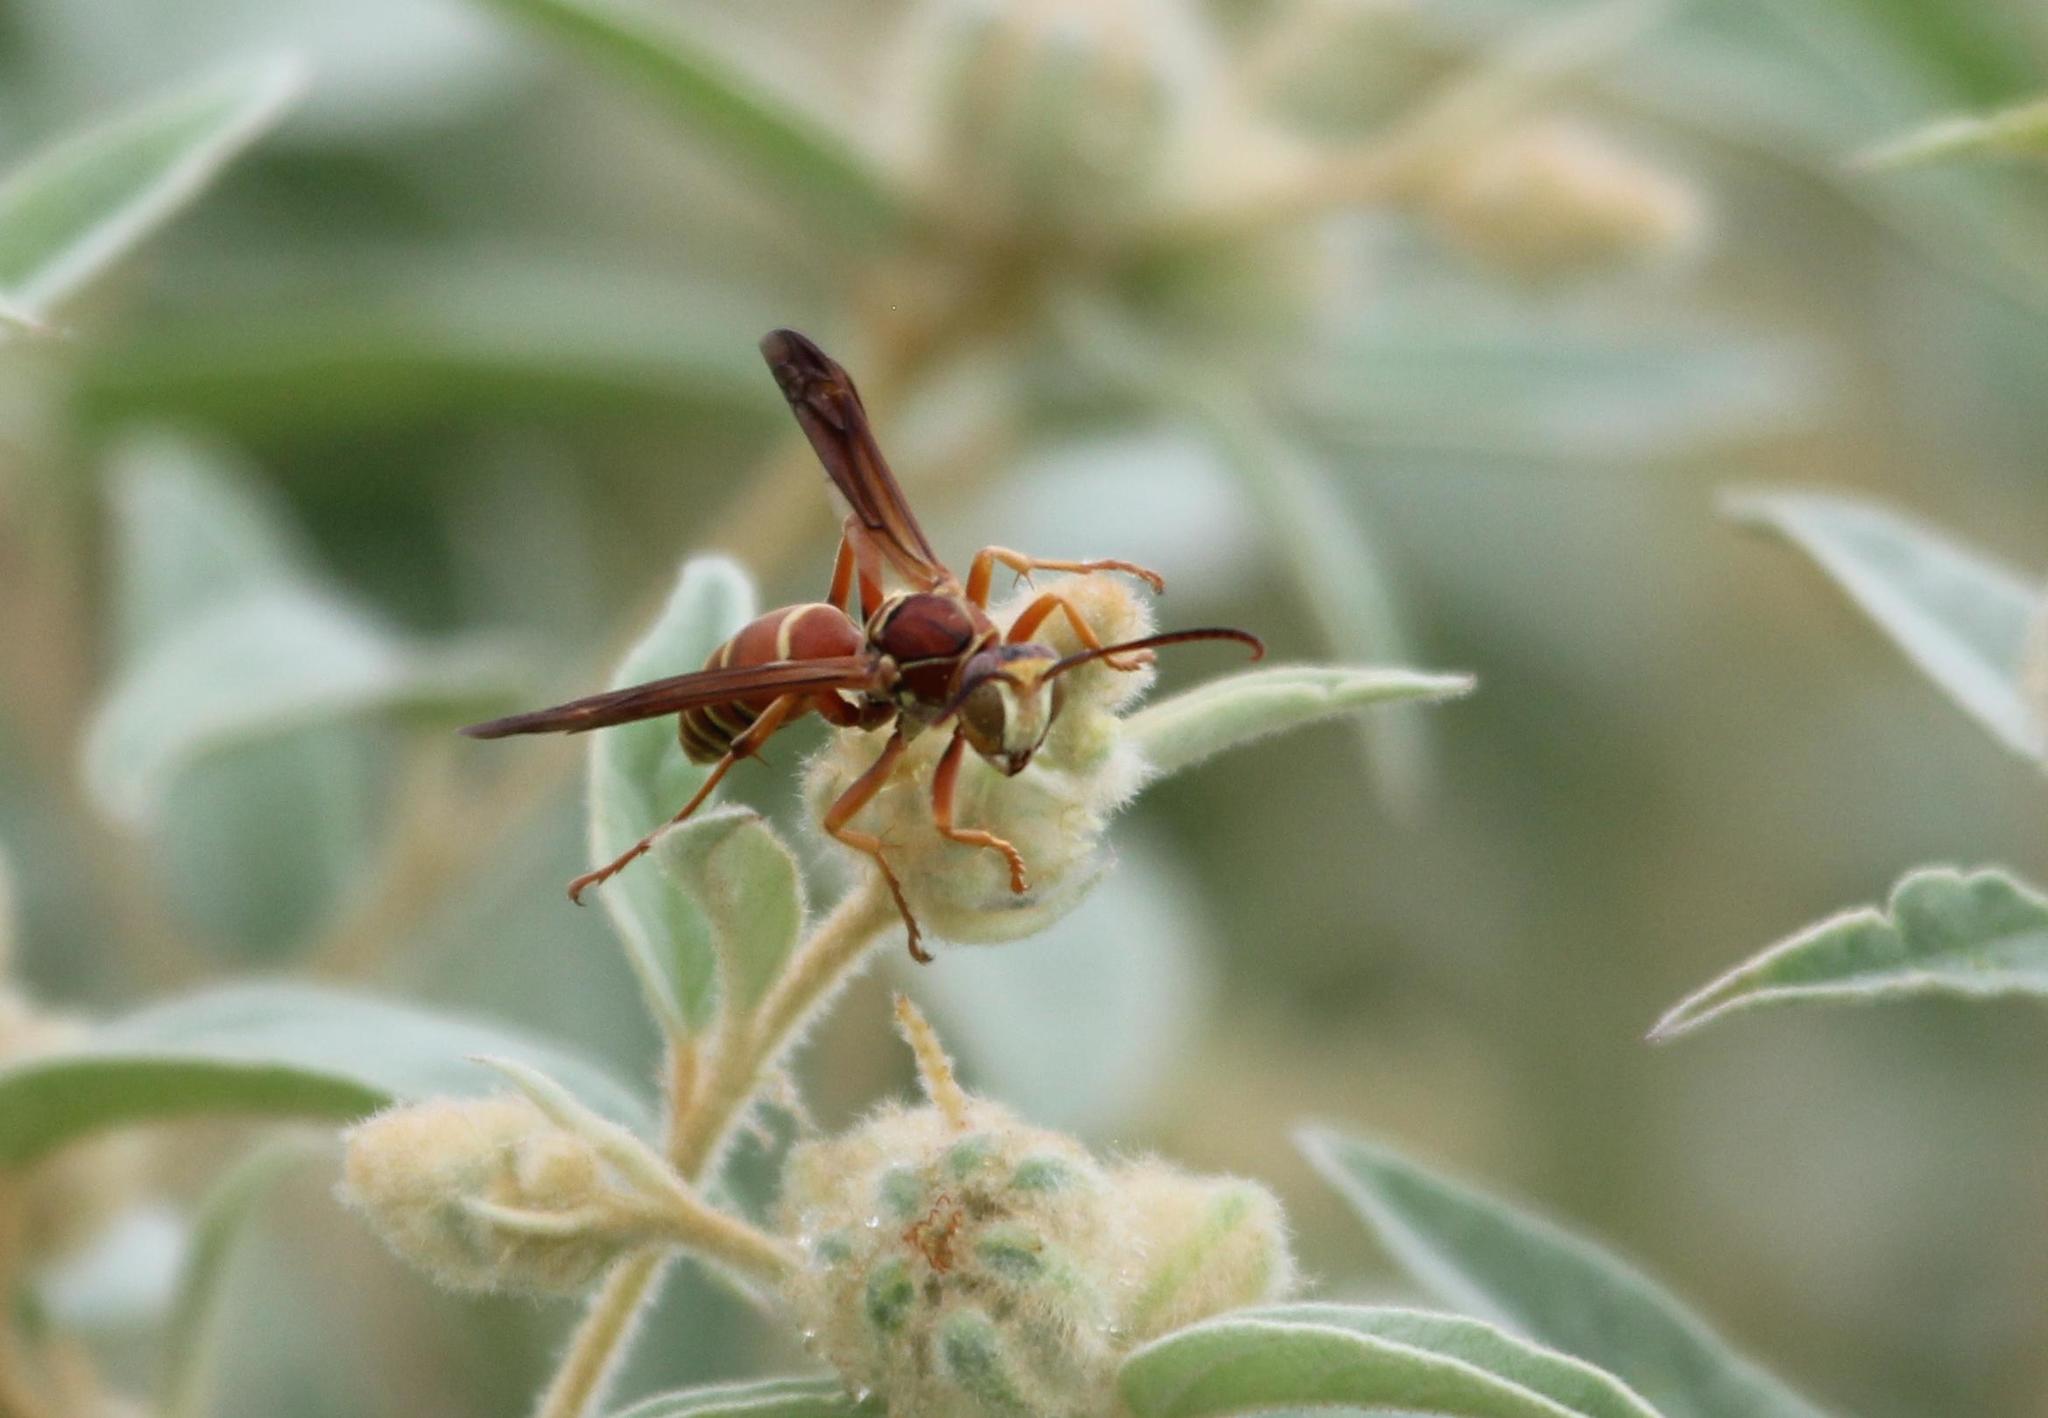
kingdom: Animalia
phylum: Arthropoda
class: Insecta
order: Hymenoptera
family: Eumenidae
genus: Polistes
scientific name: Polistes bellicosus
